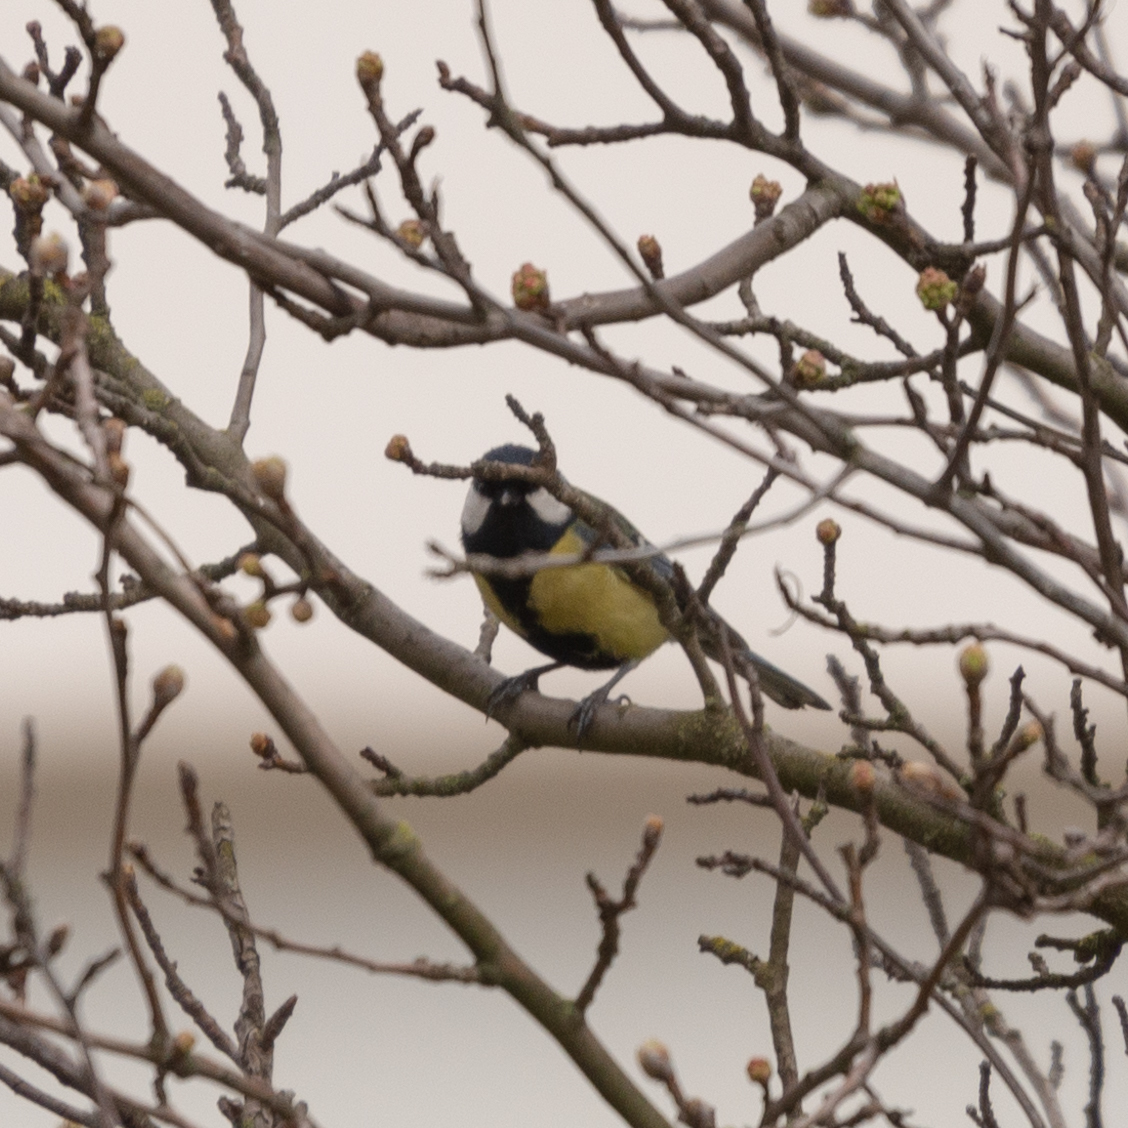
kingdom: Animalia
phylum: Chordata
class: Aves
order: Passeriformes
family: Paridae
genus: Parus
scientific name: Parus major
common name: Great tit
